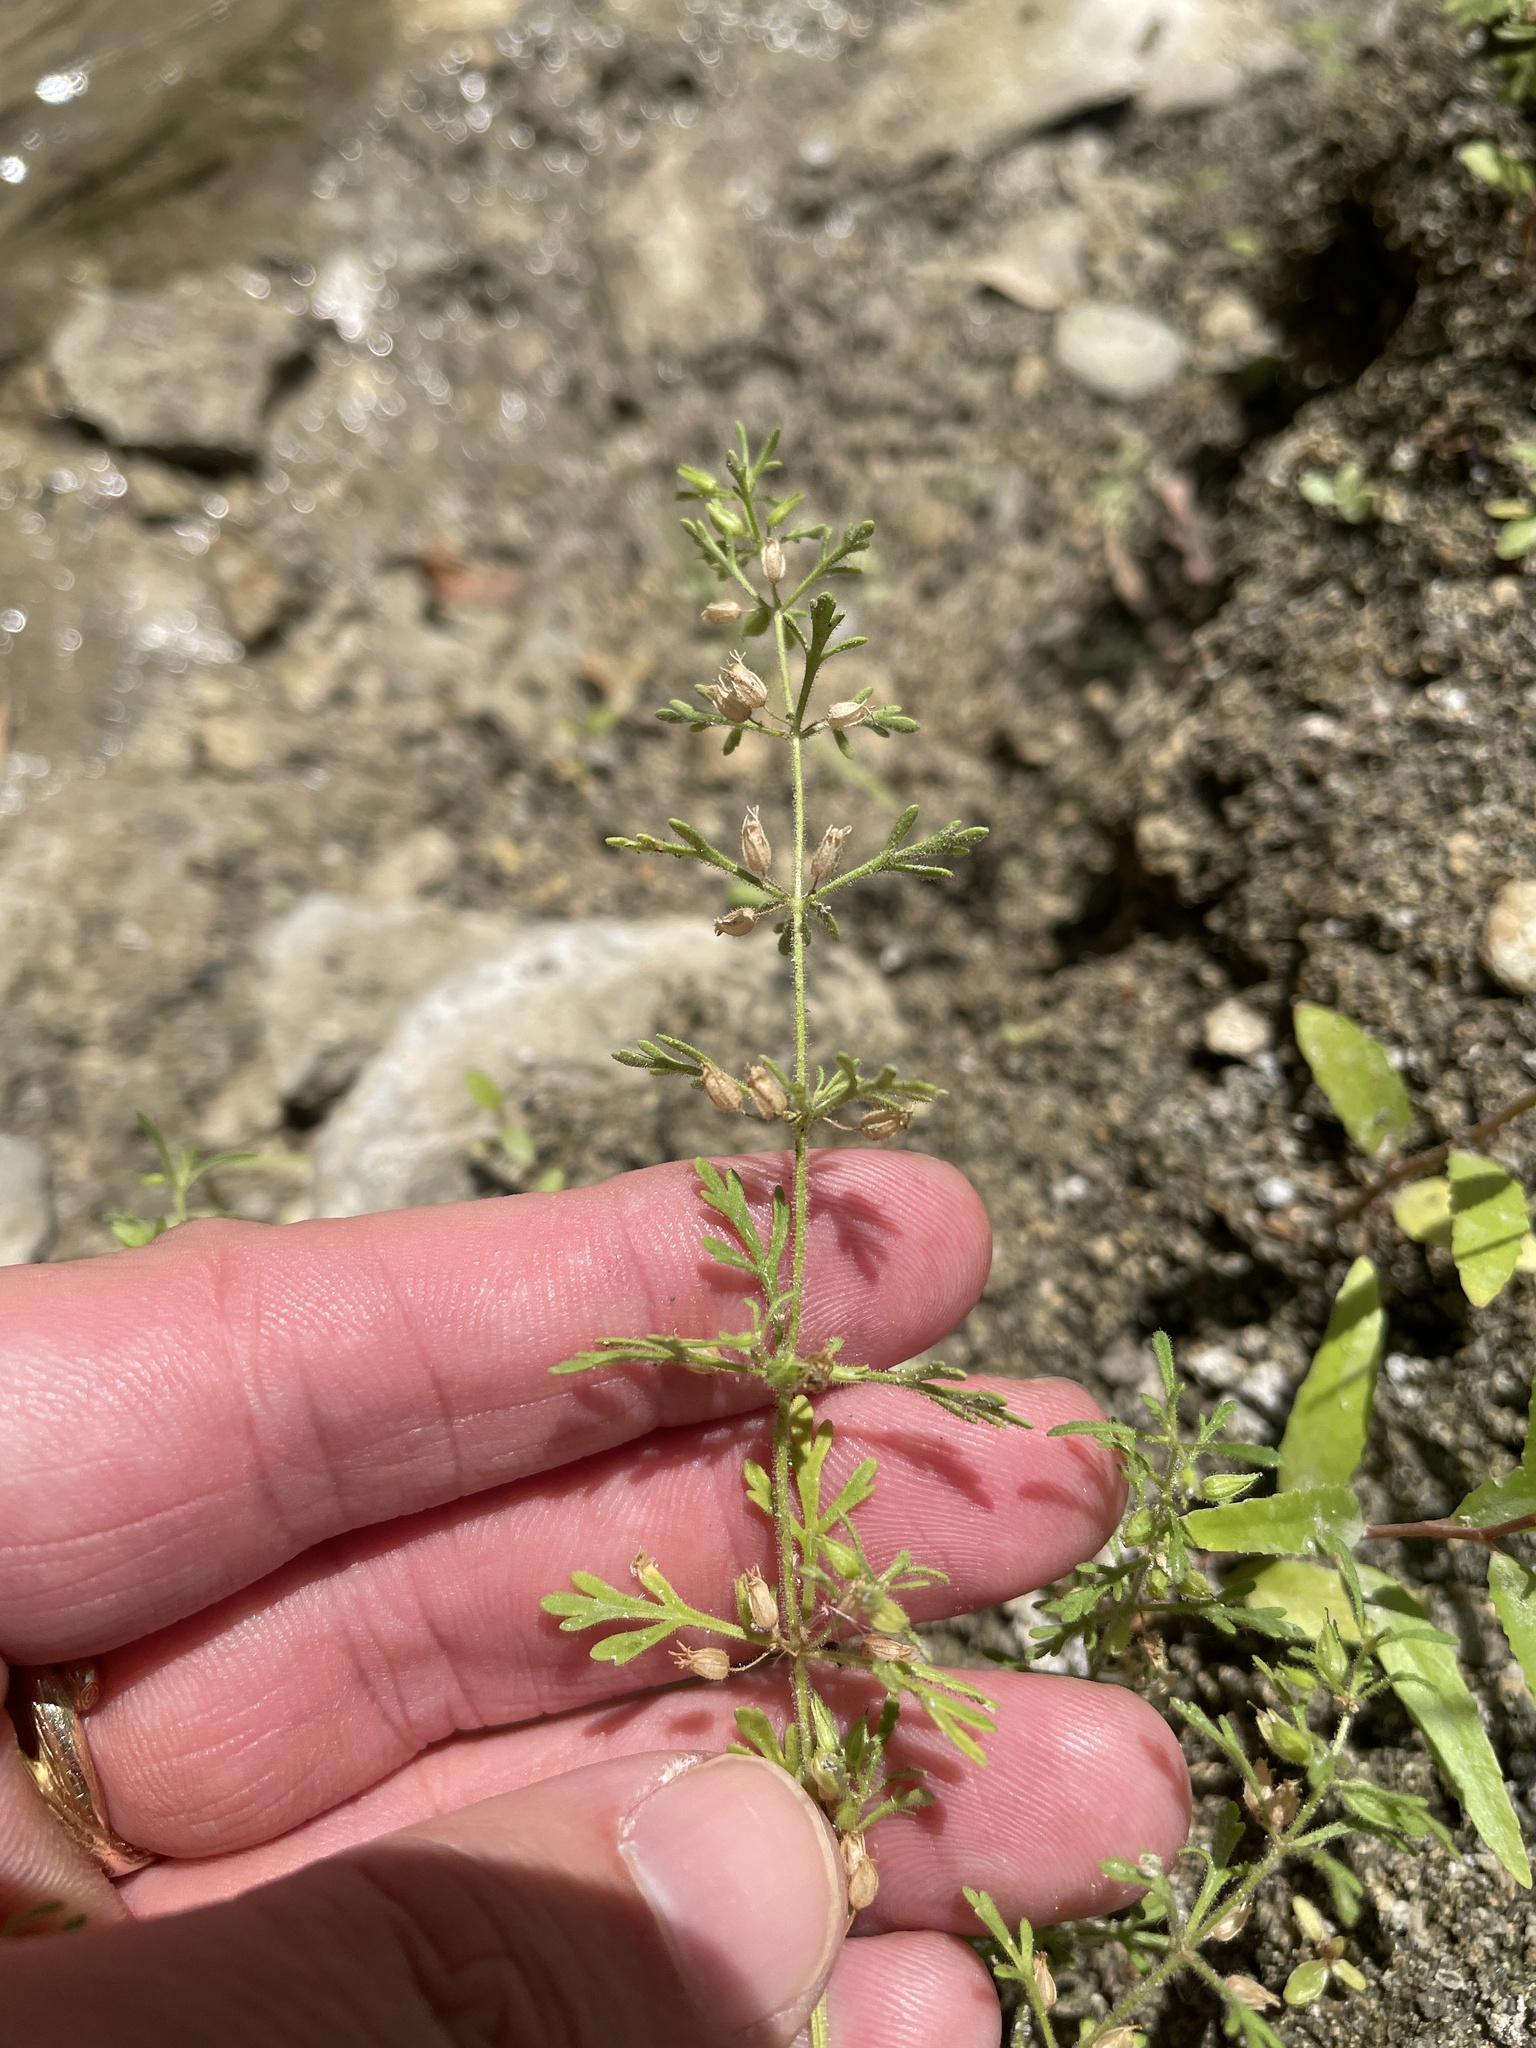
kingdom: Plantae
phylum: Tracheophyta
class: Magnoliopsida
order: Lamiales
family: Plantaginaceae
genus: Leucospora
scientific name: Leucospora multifida
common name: Narrow-leaf paleseed
